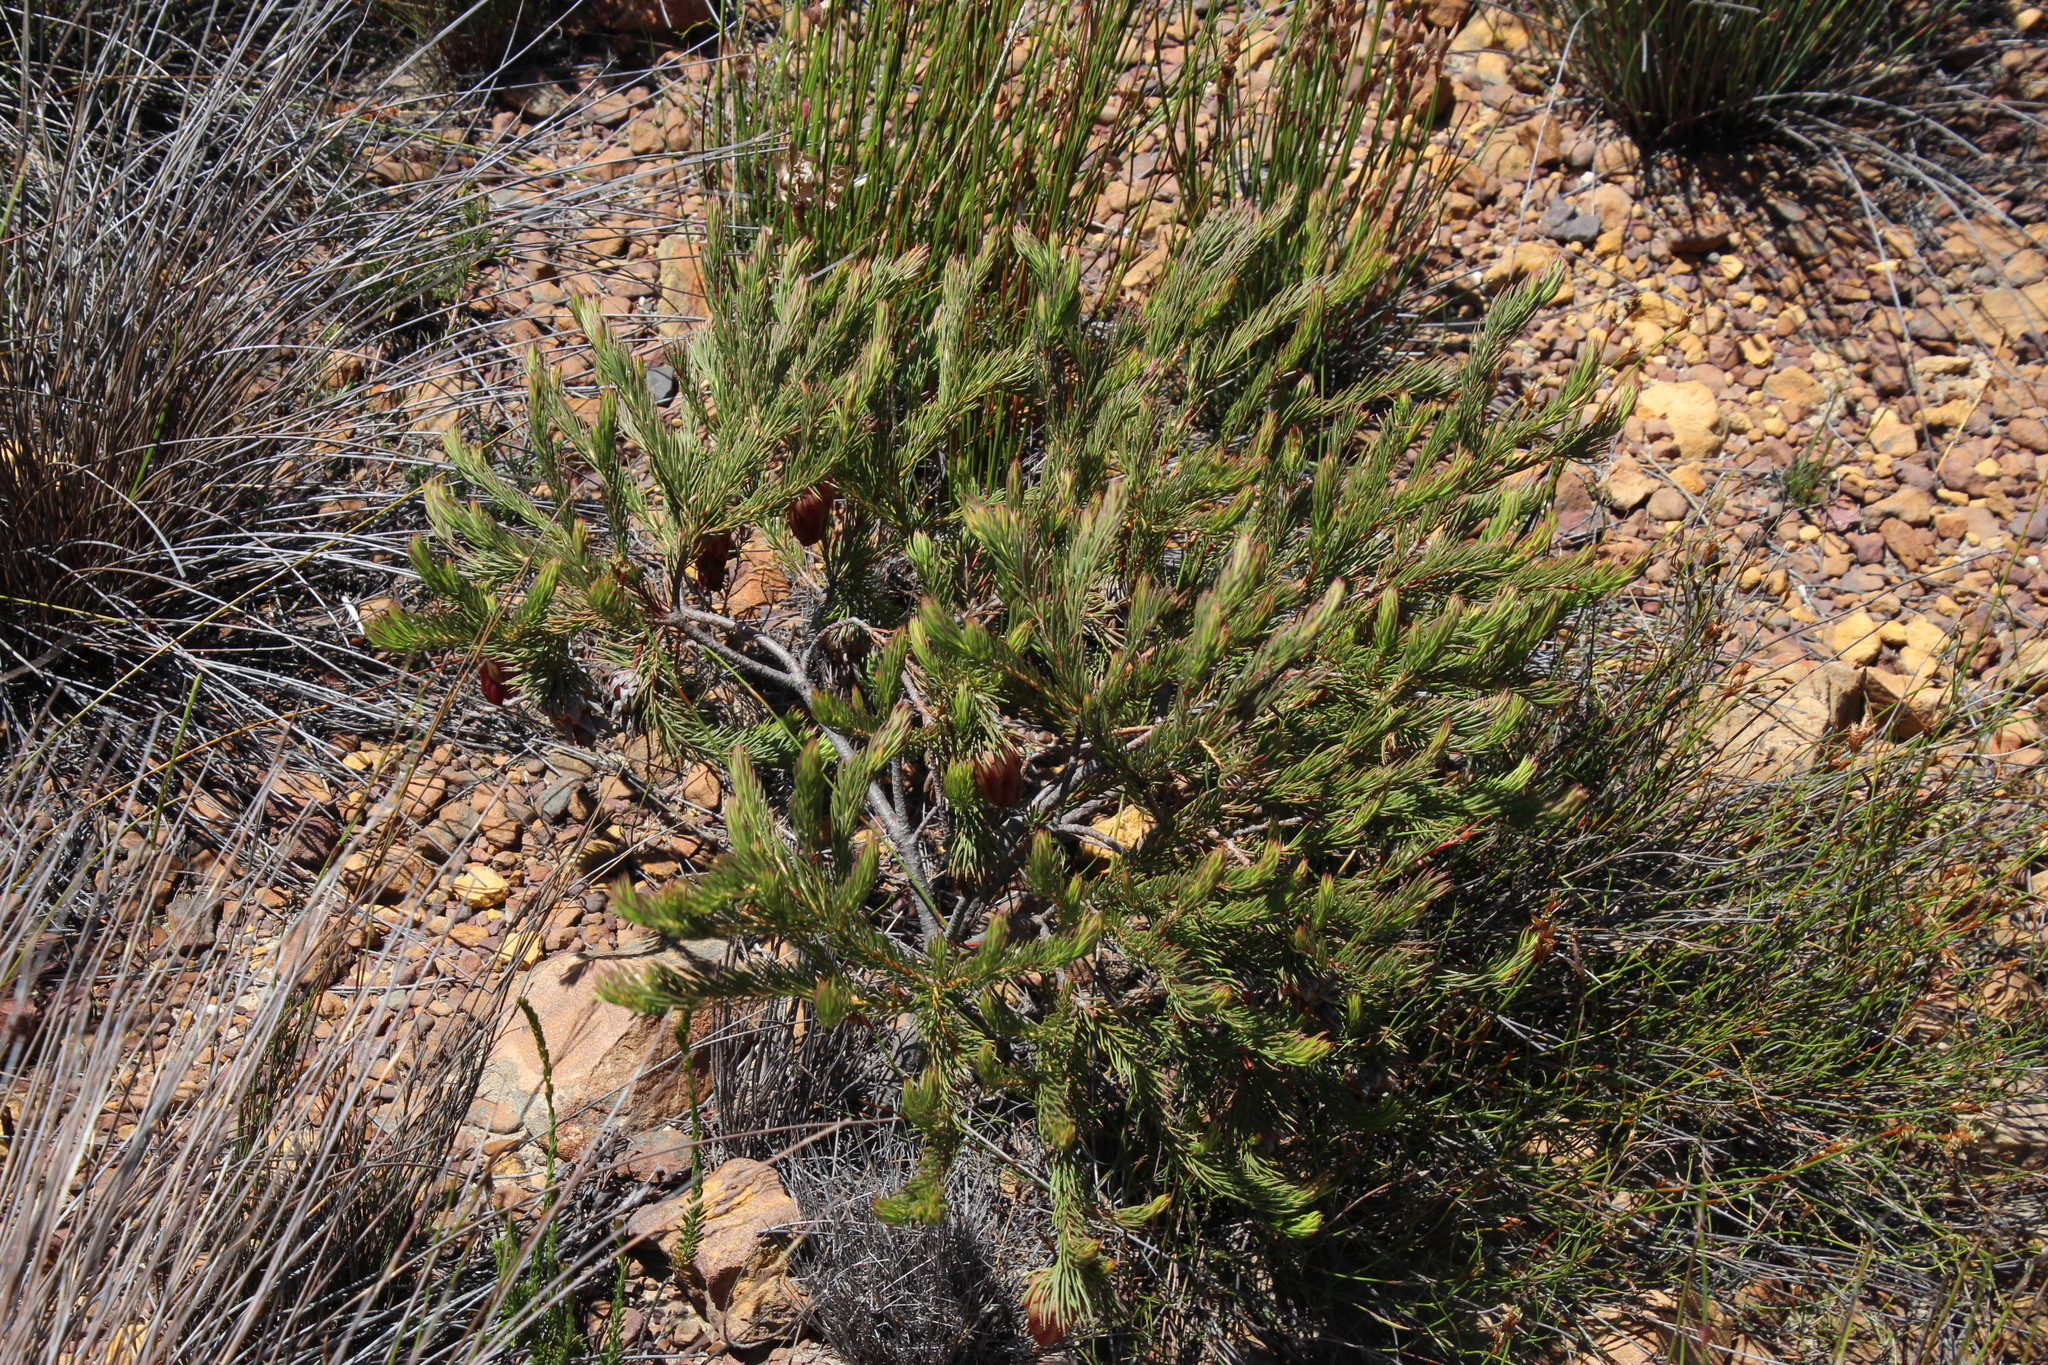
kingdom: Plantae
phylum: Tracheophyta
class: Magnoliopsida
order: Proteales
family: Proteaceae
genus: Protea
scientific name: Protea nana
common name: Mountain rose
